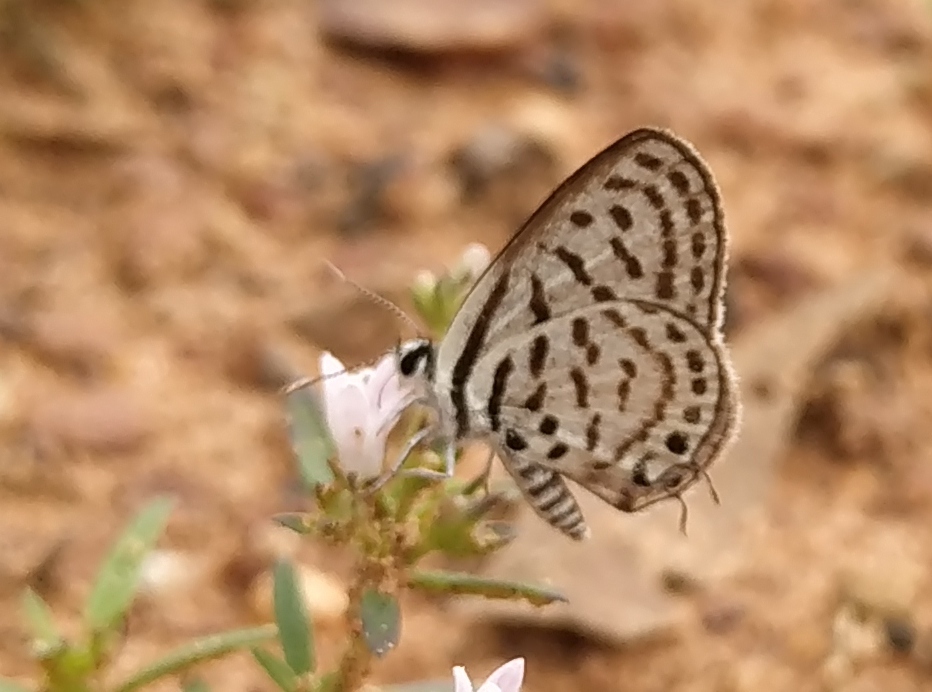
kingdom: Animalia
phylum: Arthropoda
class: Insecta
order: Lepidoptera
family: Lycaenidae
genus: Tarucus
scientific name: Tarucus balkanica
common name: Little tiger blue
